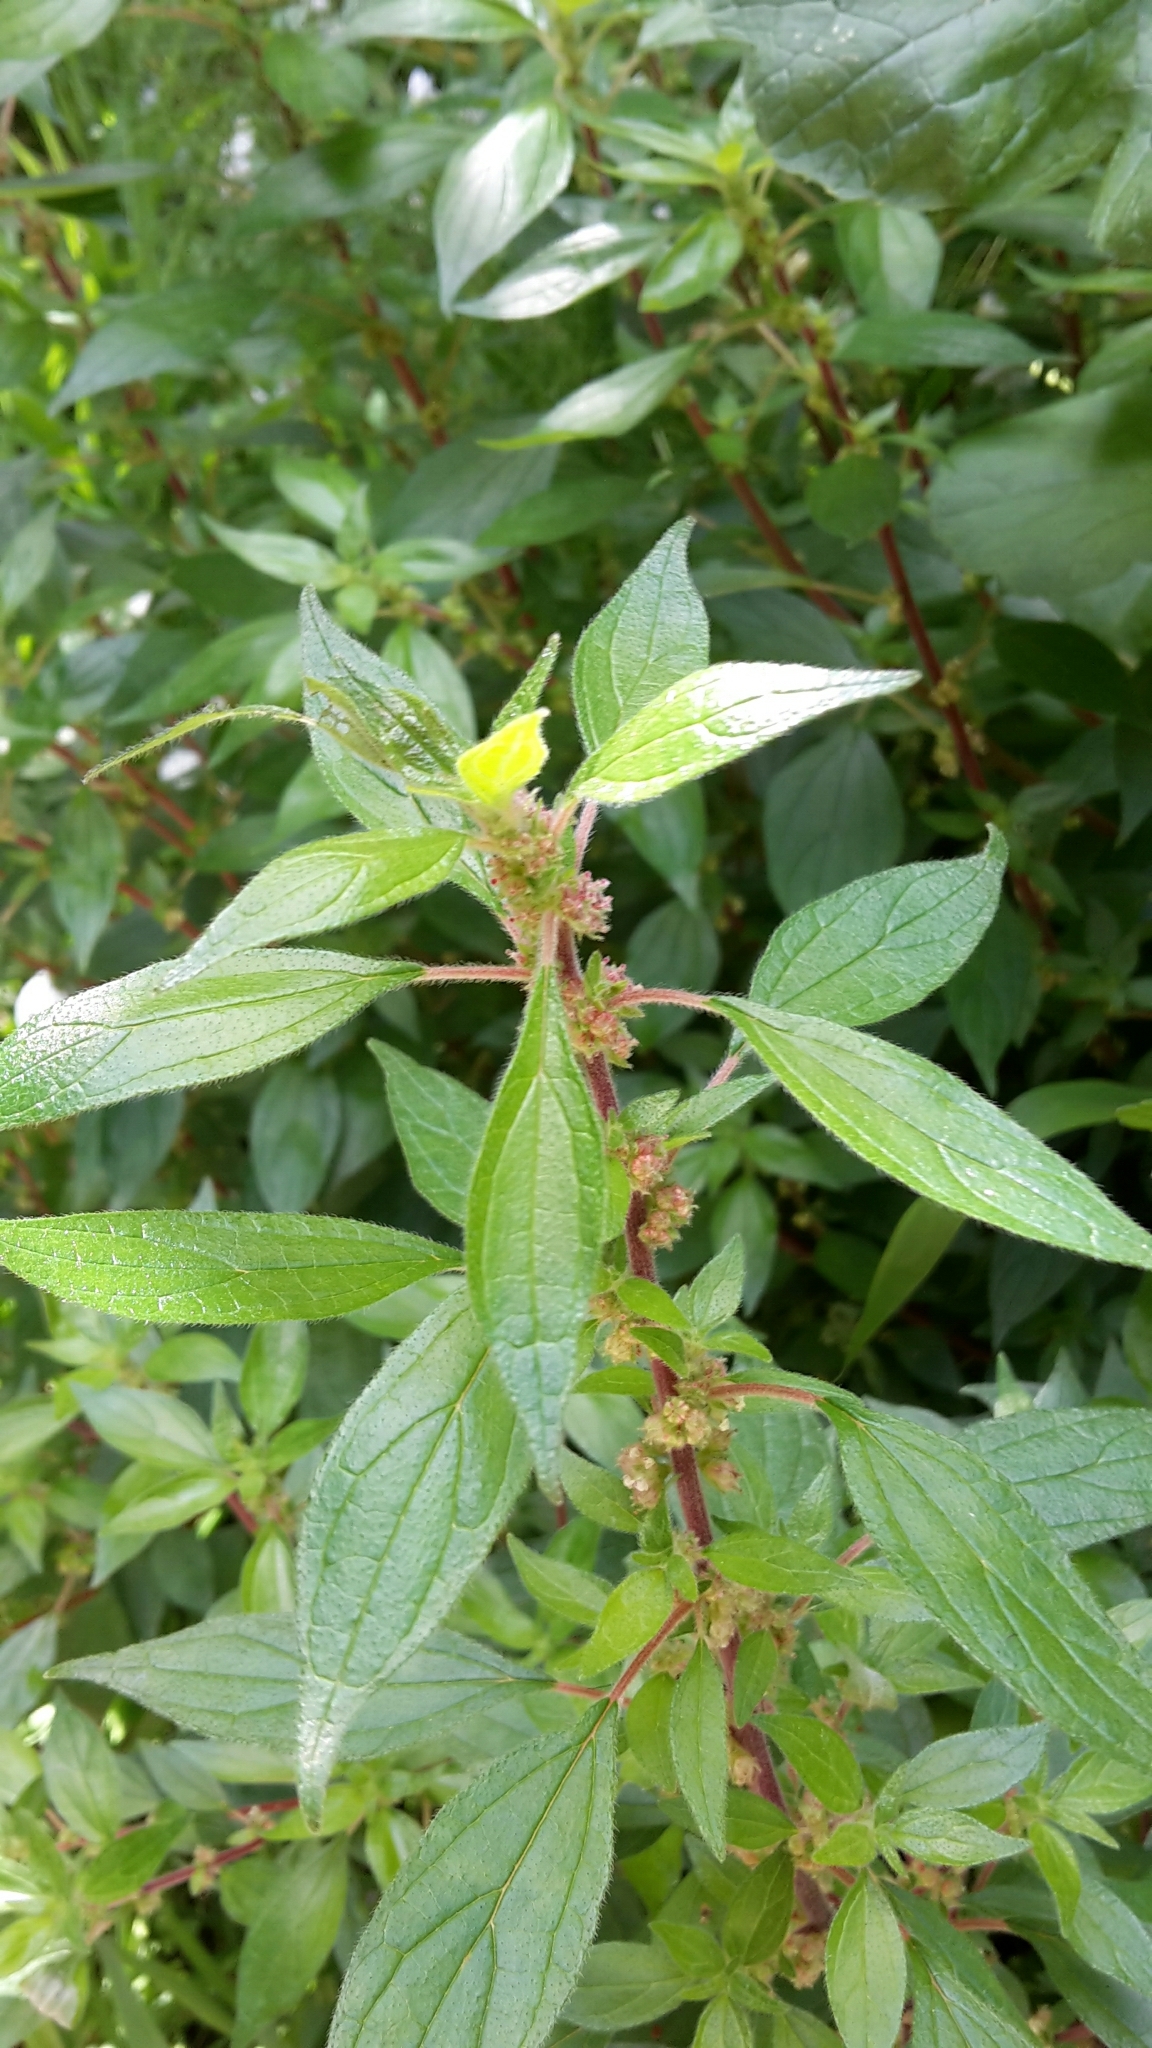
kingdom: Plantae
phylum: Tracheophyta
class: Magnoliopsida
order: Rosales
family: Urticaceae
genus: Parietaria
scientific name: Parietaria judaica
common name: Pellitory-of-the-wall
